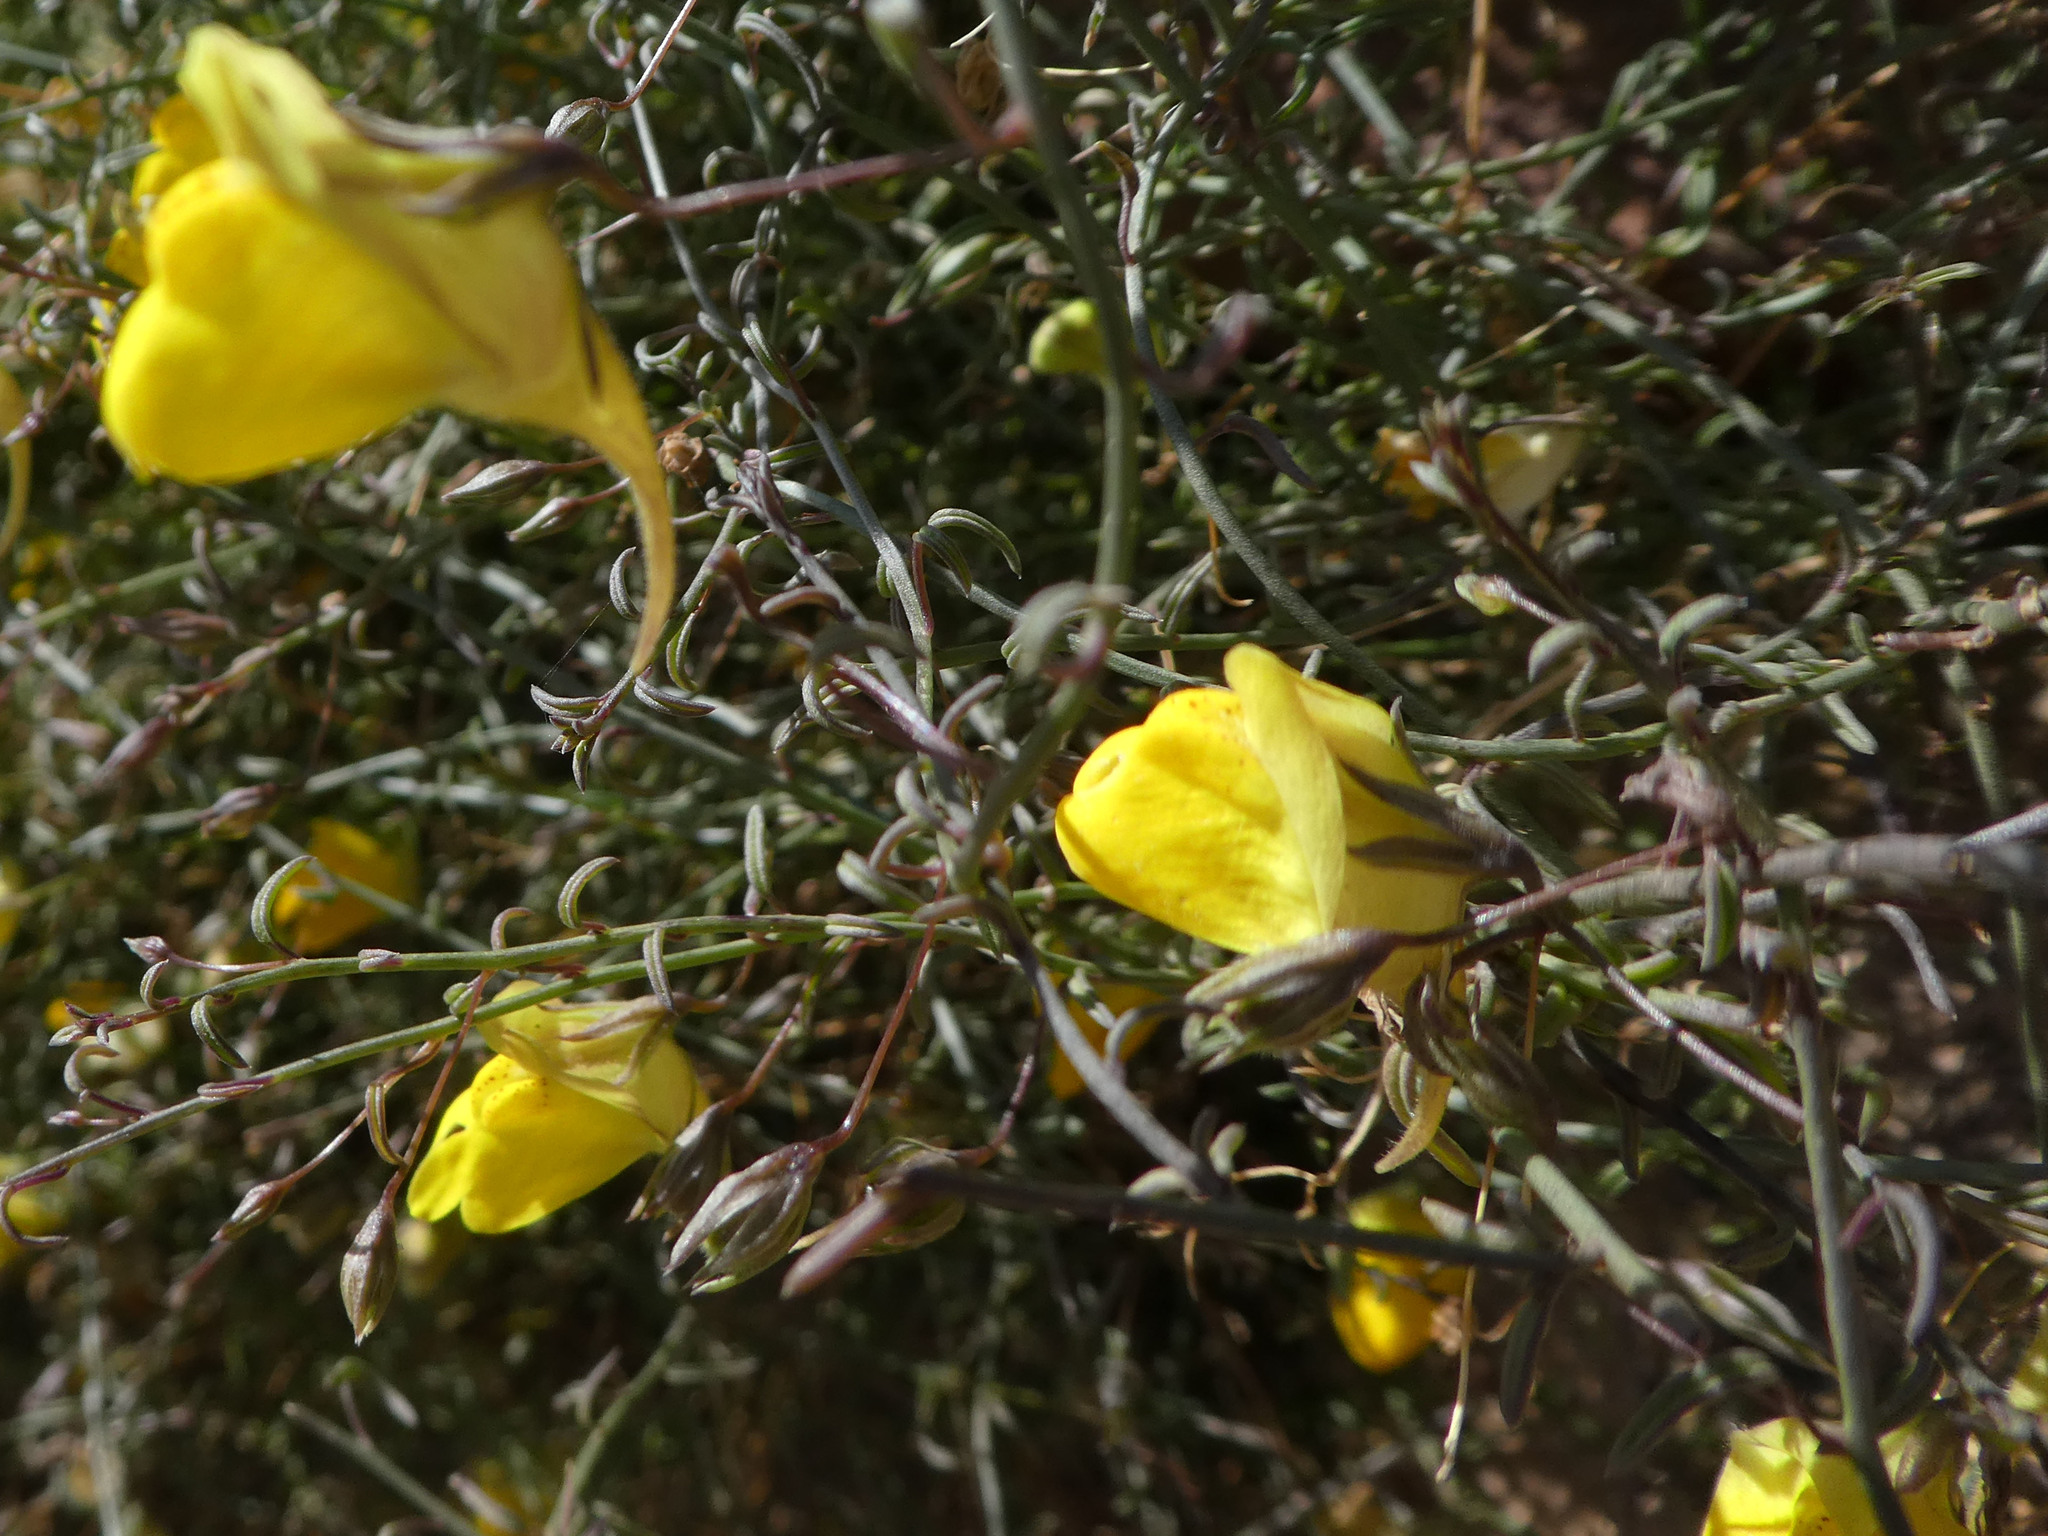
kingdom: Plantae
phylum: Tracheophyta
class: Magnoliopsida
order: Lamiales
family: Plantaginaceae
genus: Nanorrhinum
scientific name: Nanorrhinum heterophyllum
